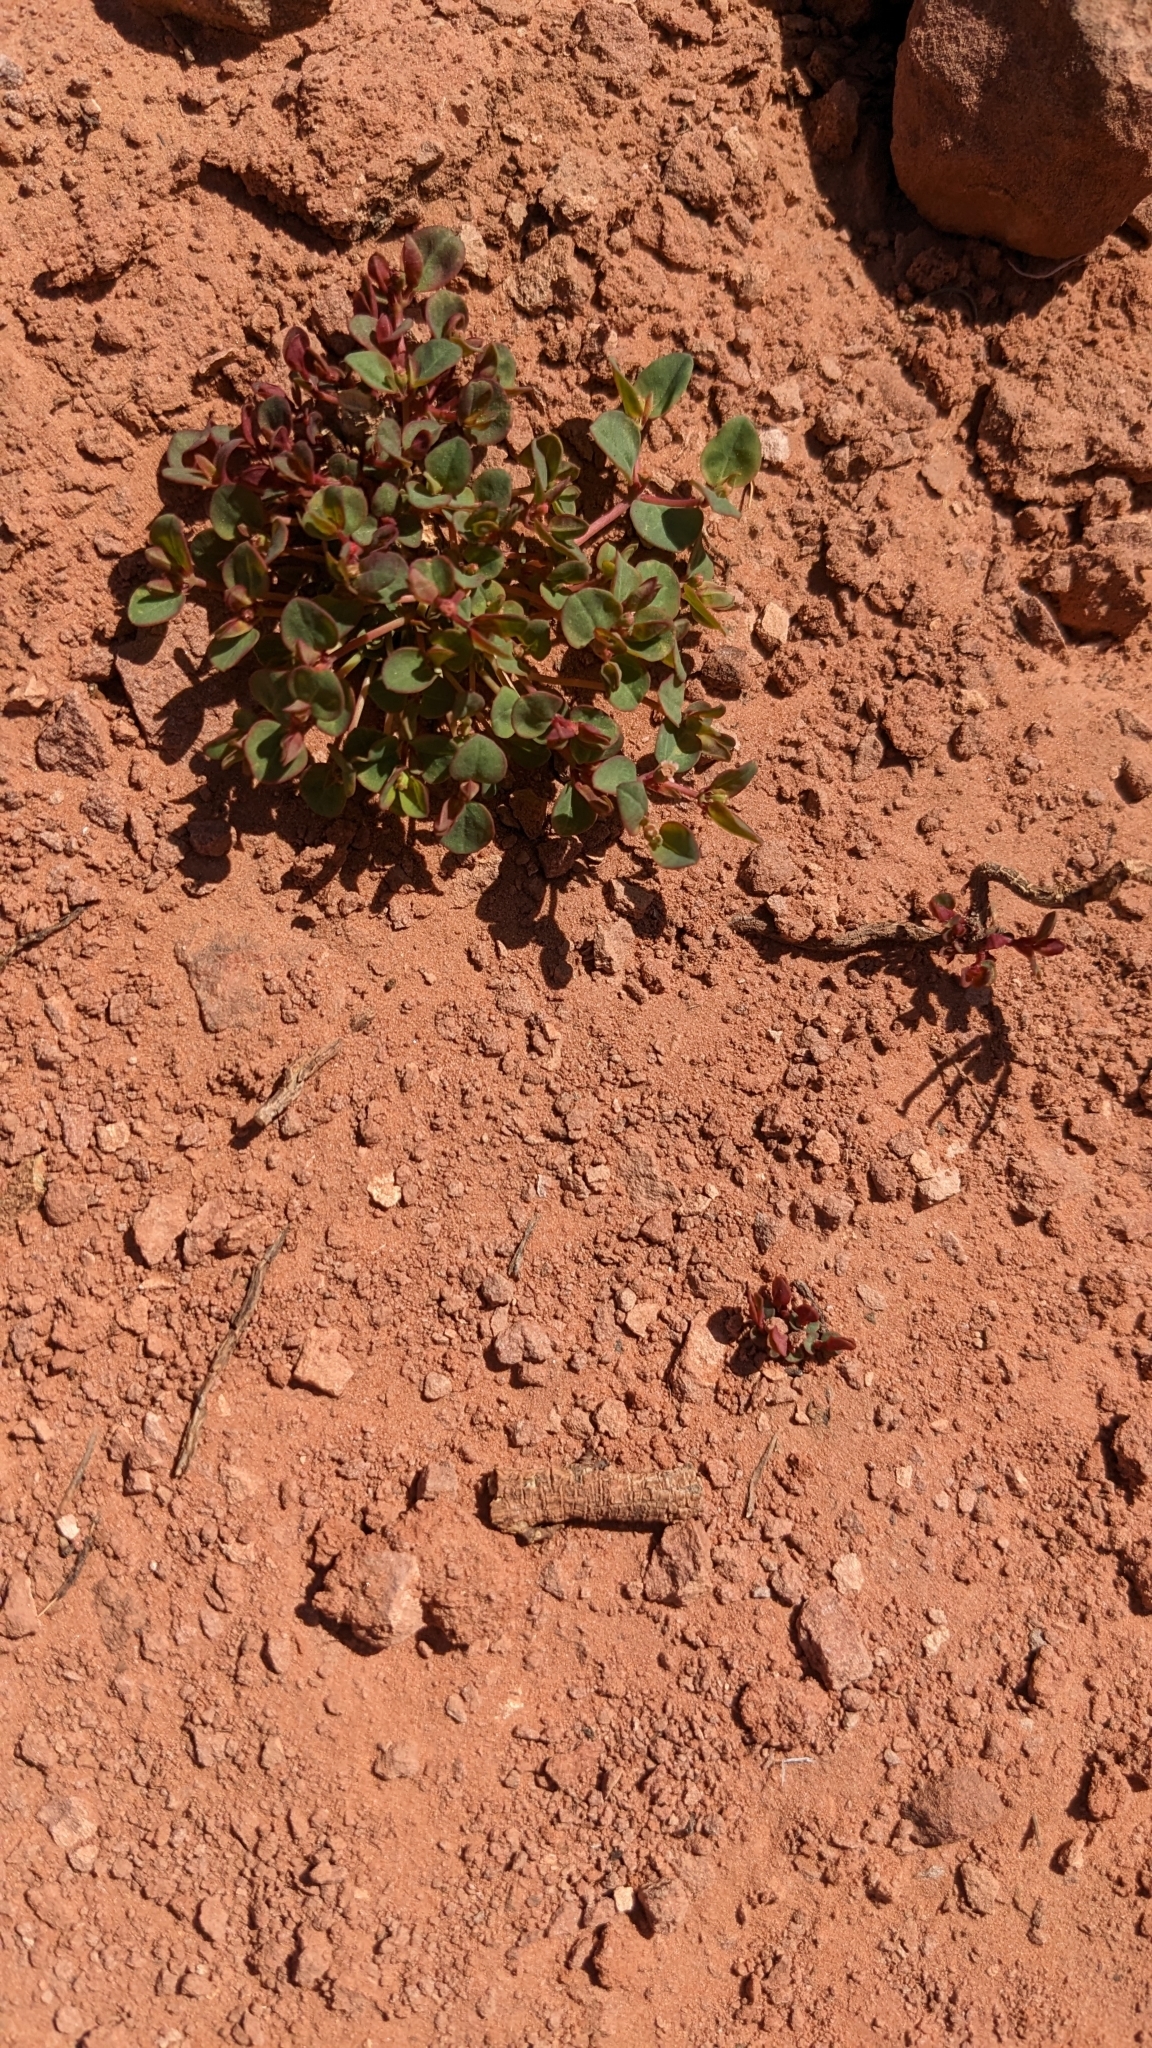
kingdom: Plantae
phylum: Tracheophyta
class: Magnoliopsida
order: Malpighiales
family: Euphorbiaceae
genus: Euphorbia
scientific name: Euphorbia fendleri
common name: Fendler's euphorbia
